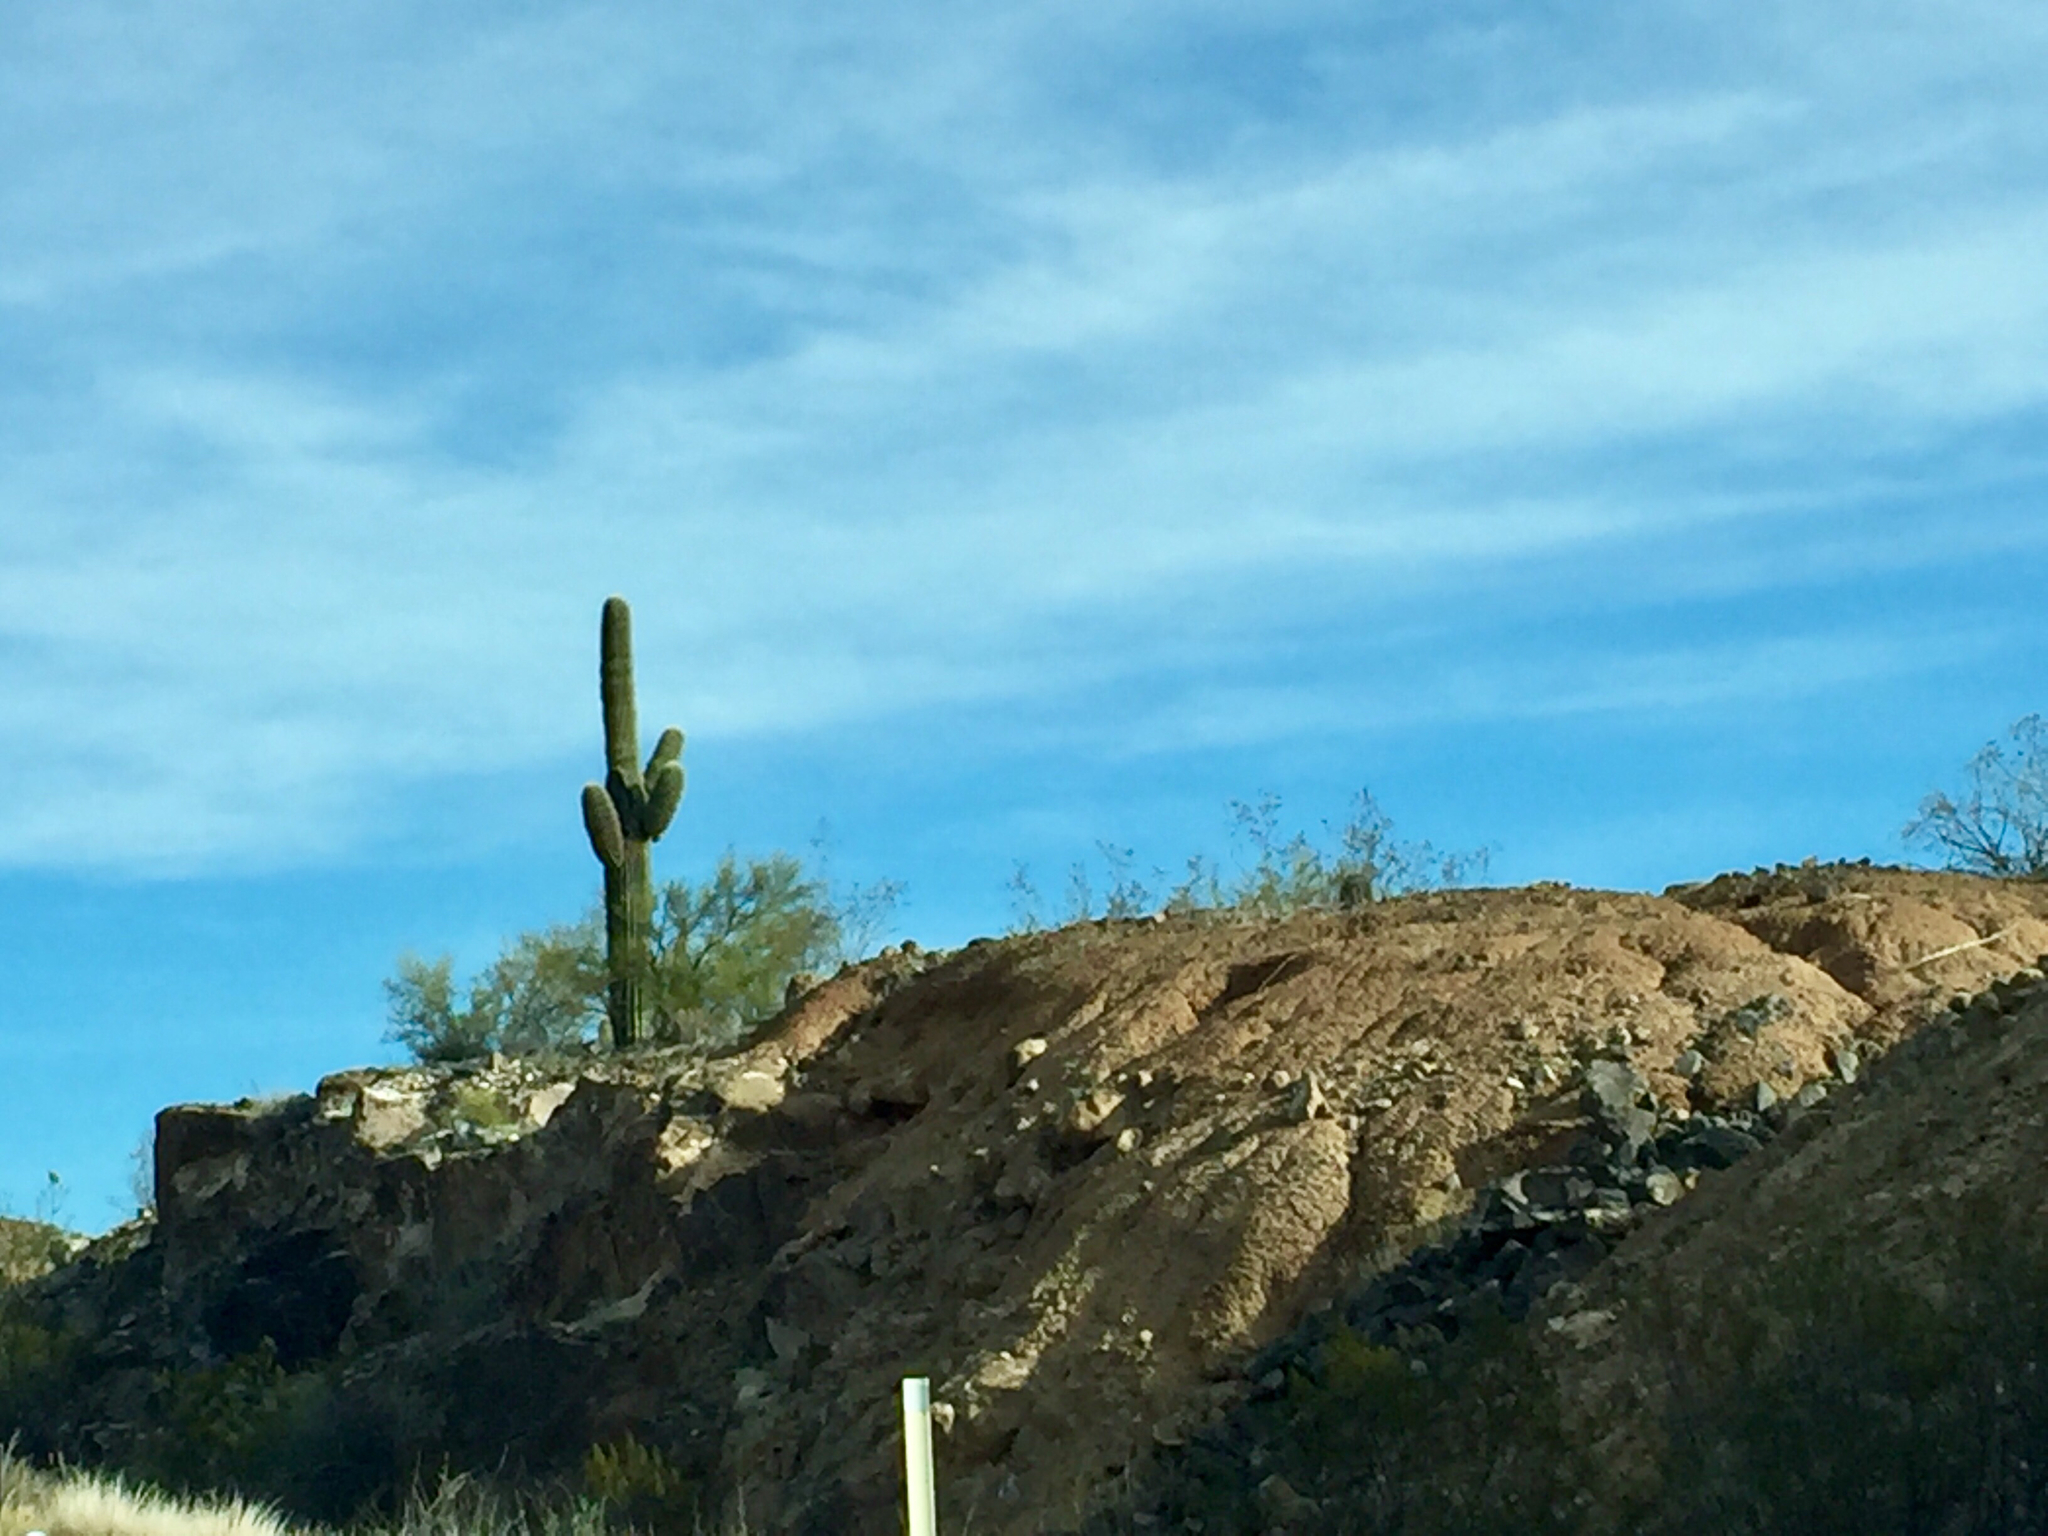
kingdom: Plantae
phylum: Tracheophyta
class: Magnoliopsida
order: Caryophyllales
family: Cactaceae
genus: Carnegiea
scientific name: Carnegiea gigantea
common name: Saguaro
